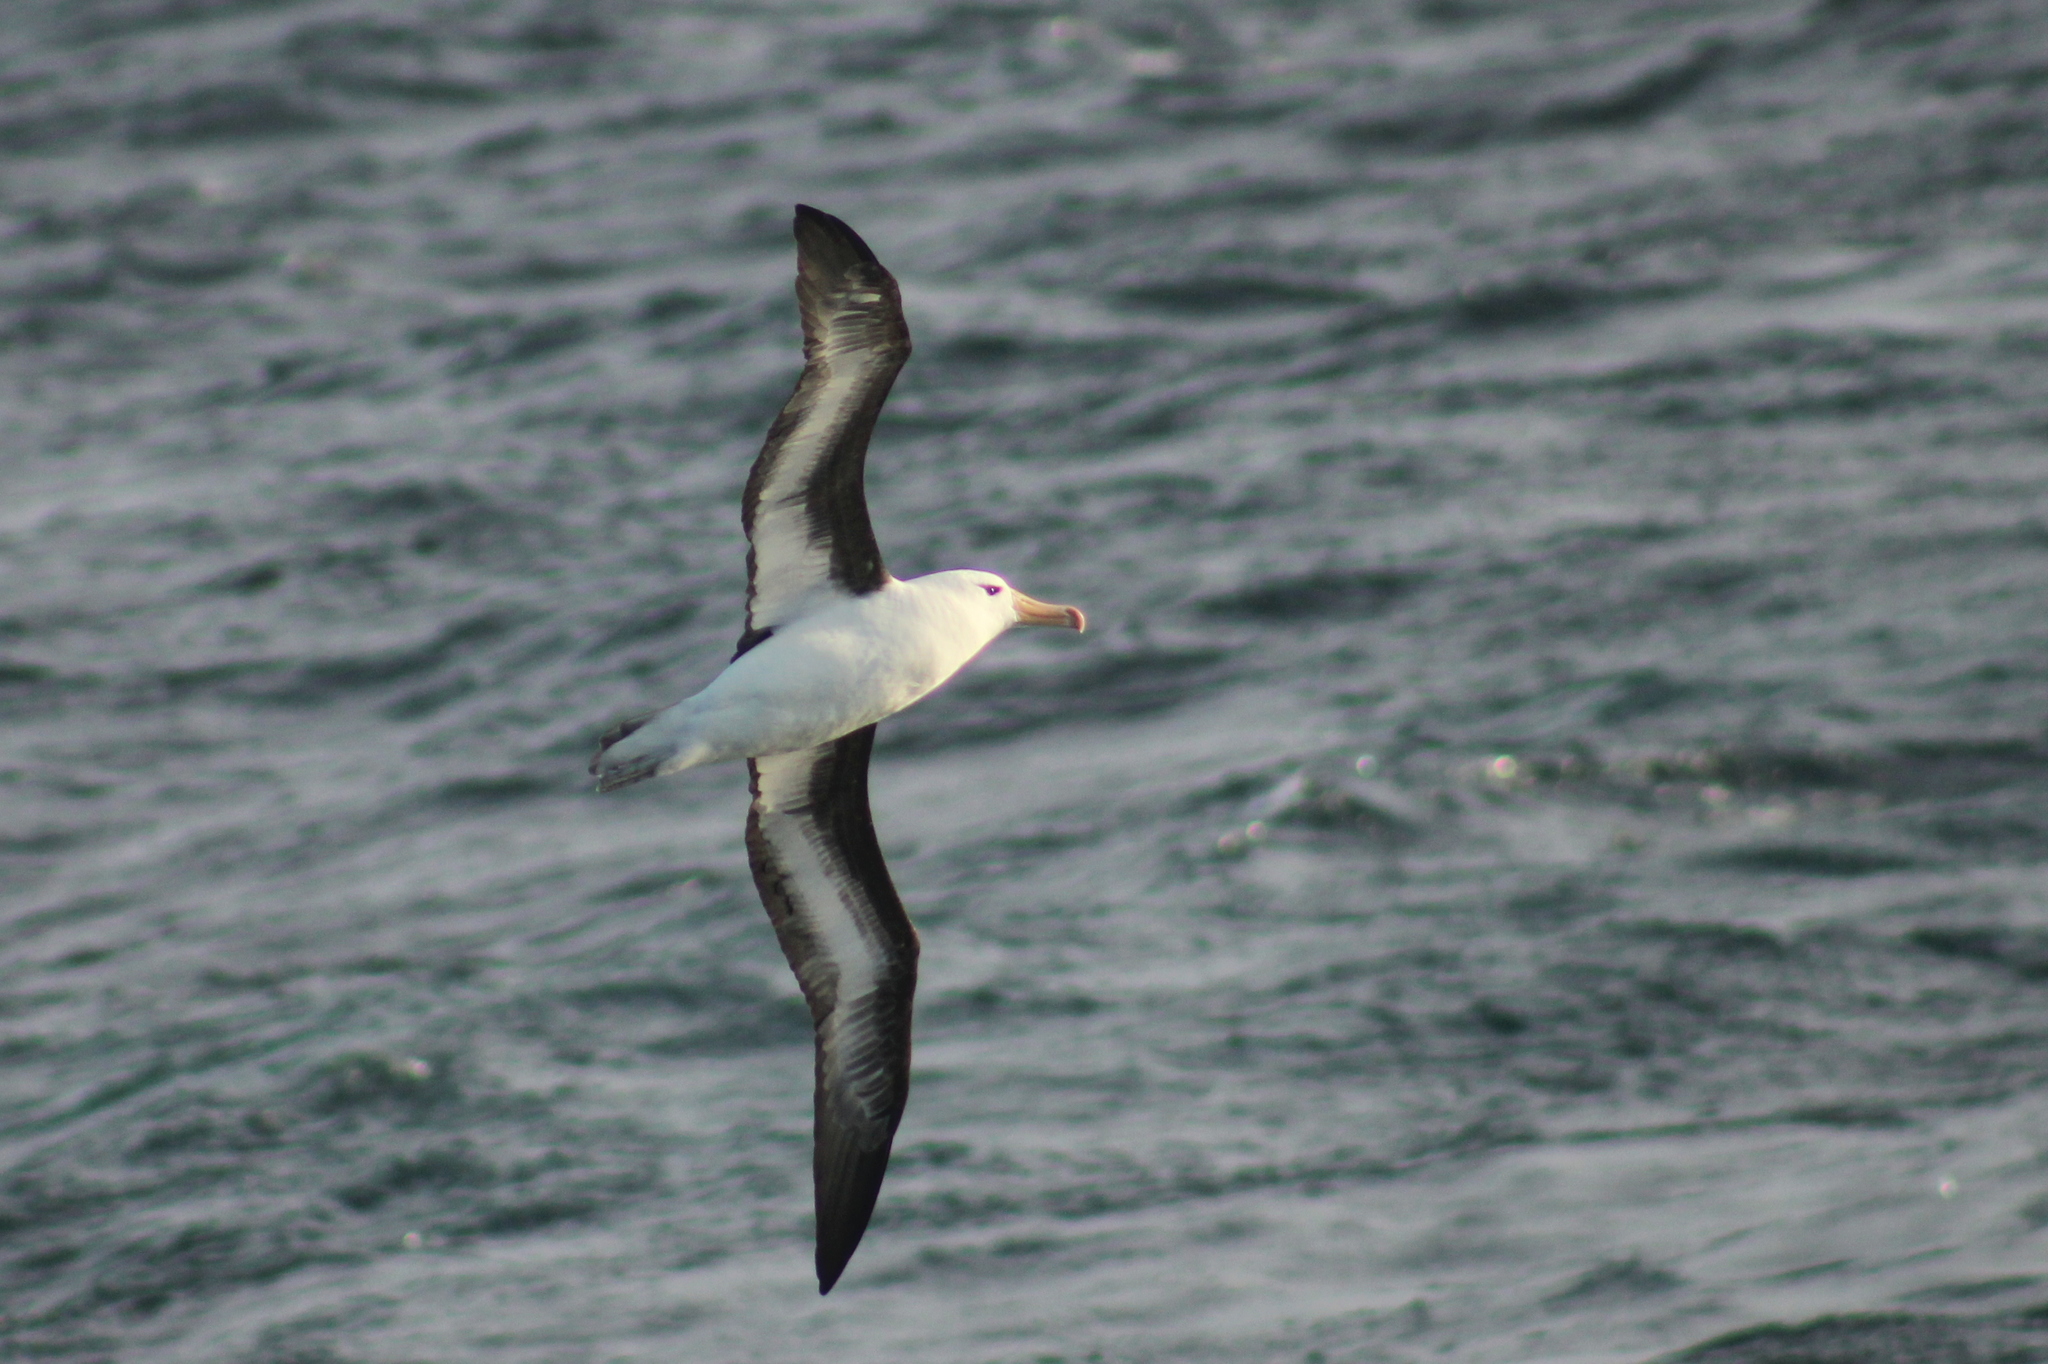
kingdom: Animalia
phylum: Chordata
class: Aves
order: Procellariiformes
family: Diomedeidae
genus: Thalassarche
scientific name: Thalassarche melanophris
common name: Black-browed albatross
